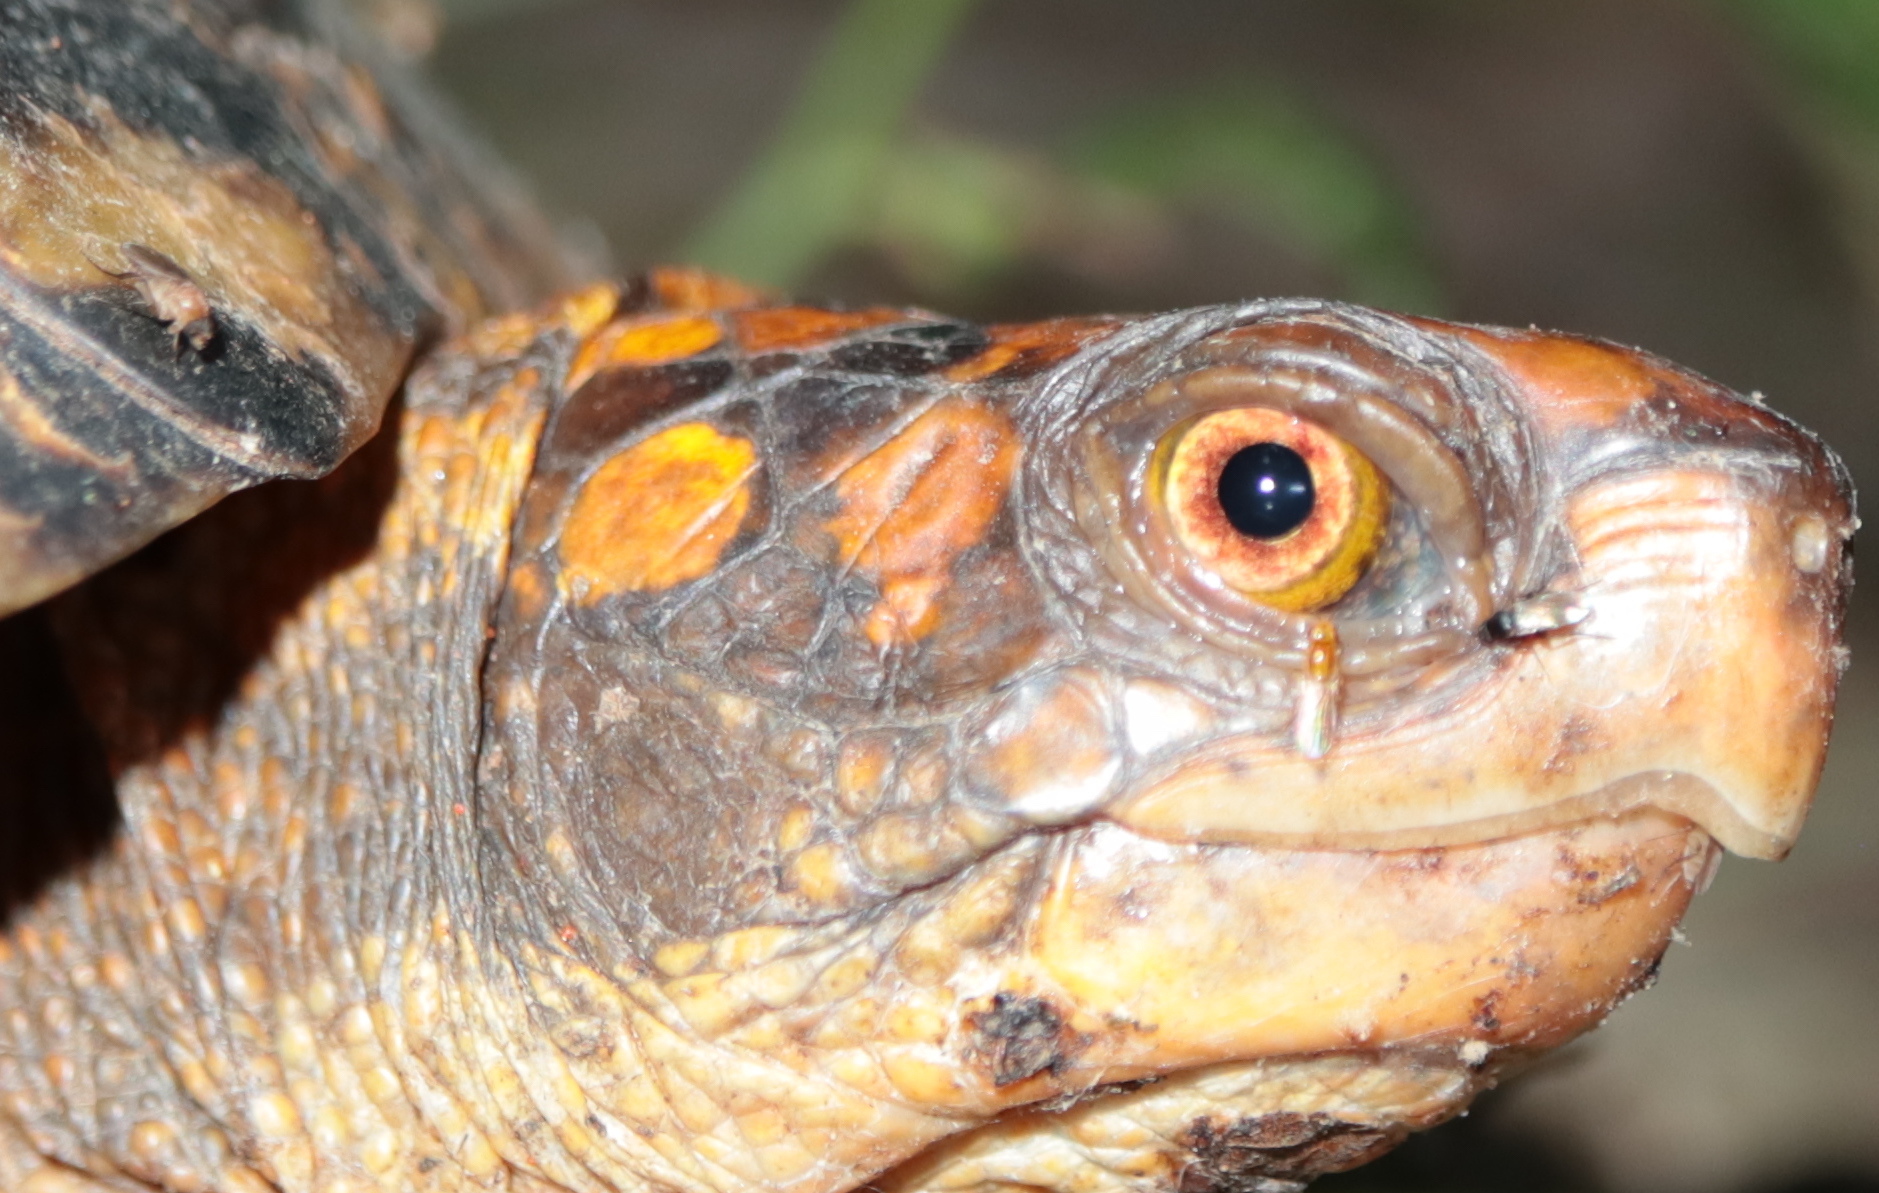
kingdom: Animalia
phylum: Chordata
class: Testudines
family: Emydidae
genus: Terrapene
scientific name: Terrapene carolina
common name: Common box turtle
